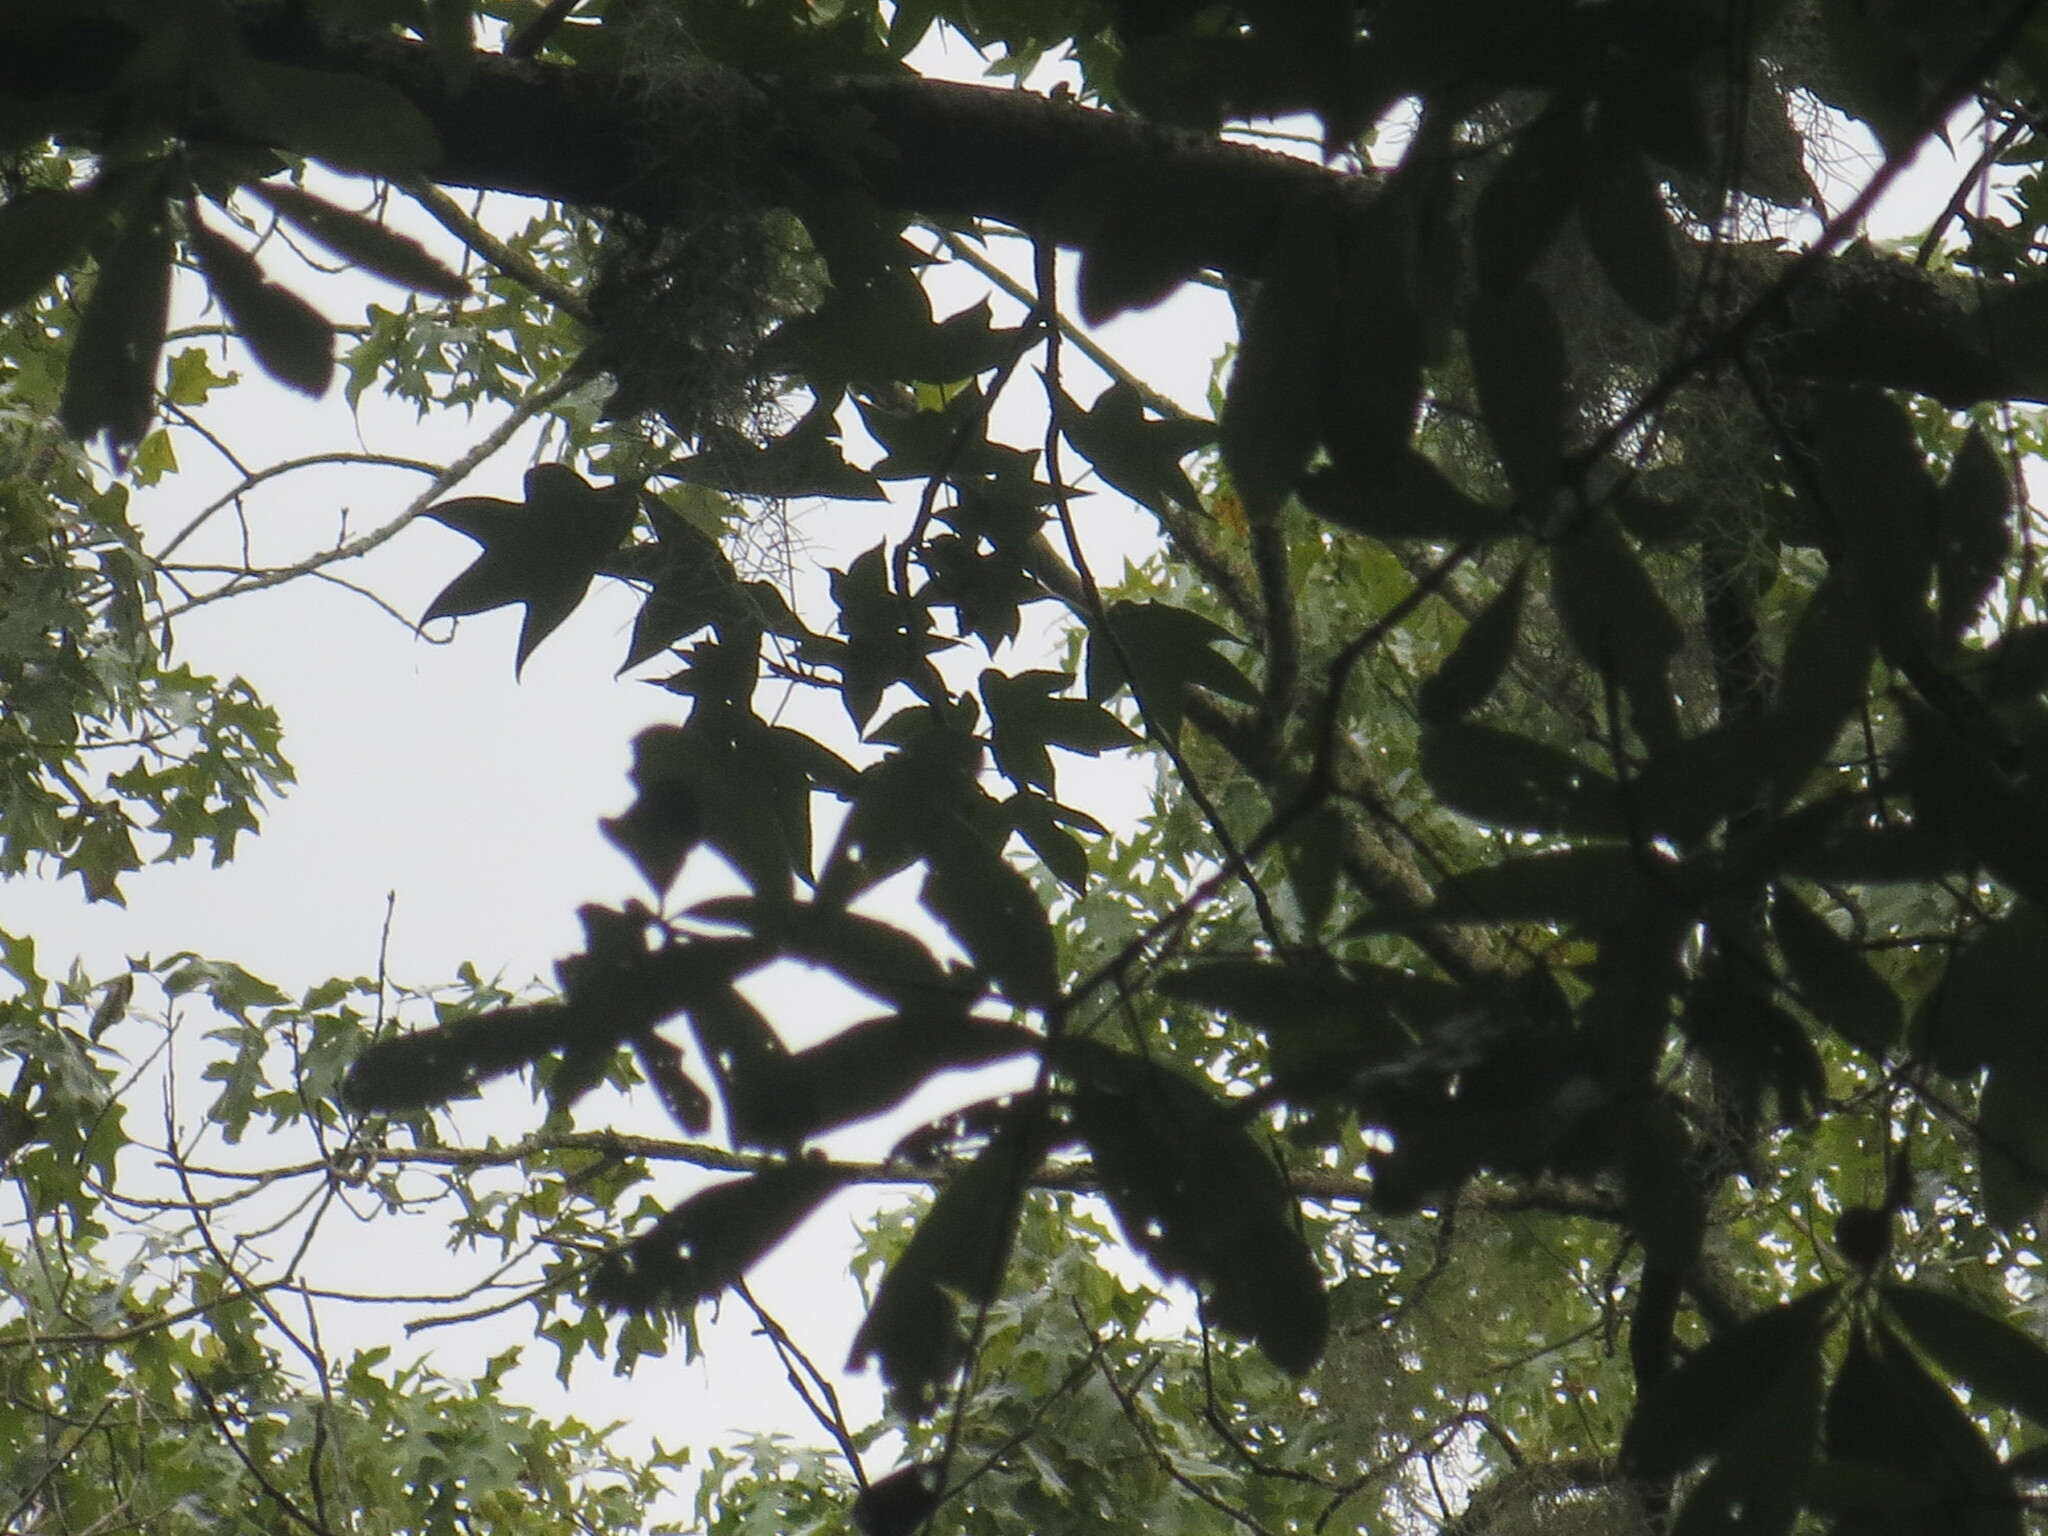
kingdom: Plantae
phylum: Tracheophyta
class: Magnoliopsida
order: Saxifragales
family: Altingiaceae
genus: Liquidambar
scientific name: Liquidambar styraciflua
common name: Sweet gum
